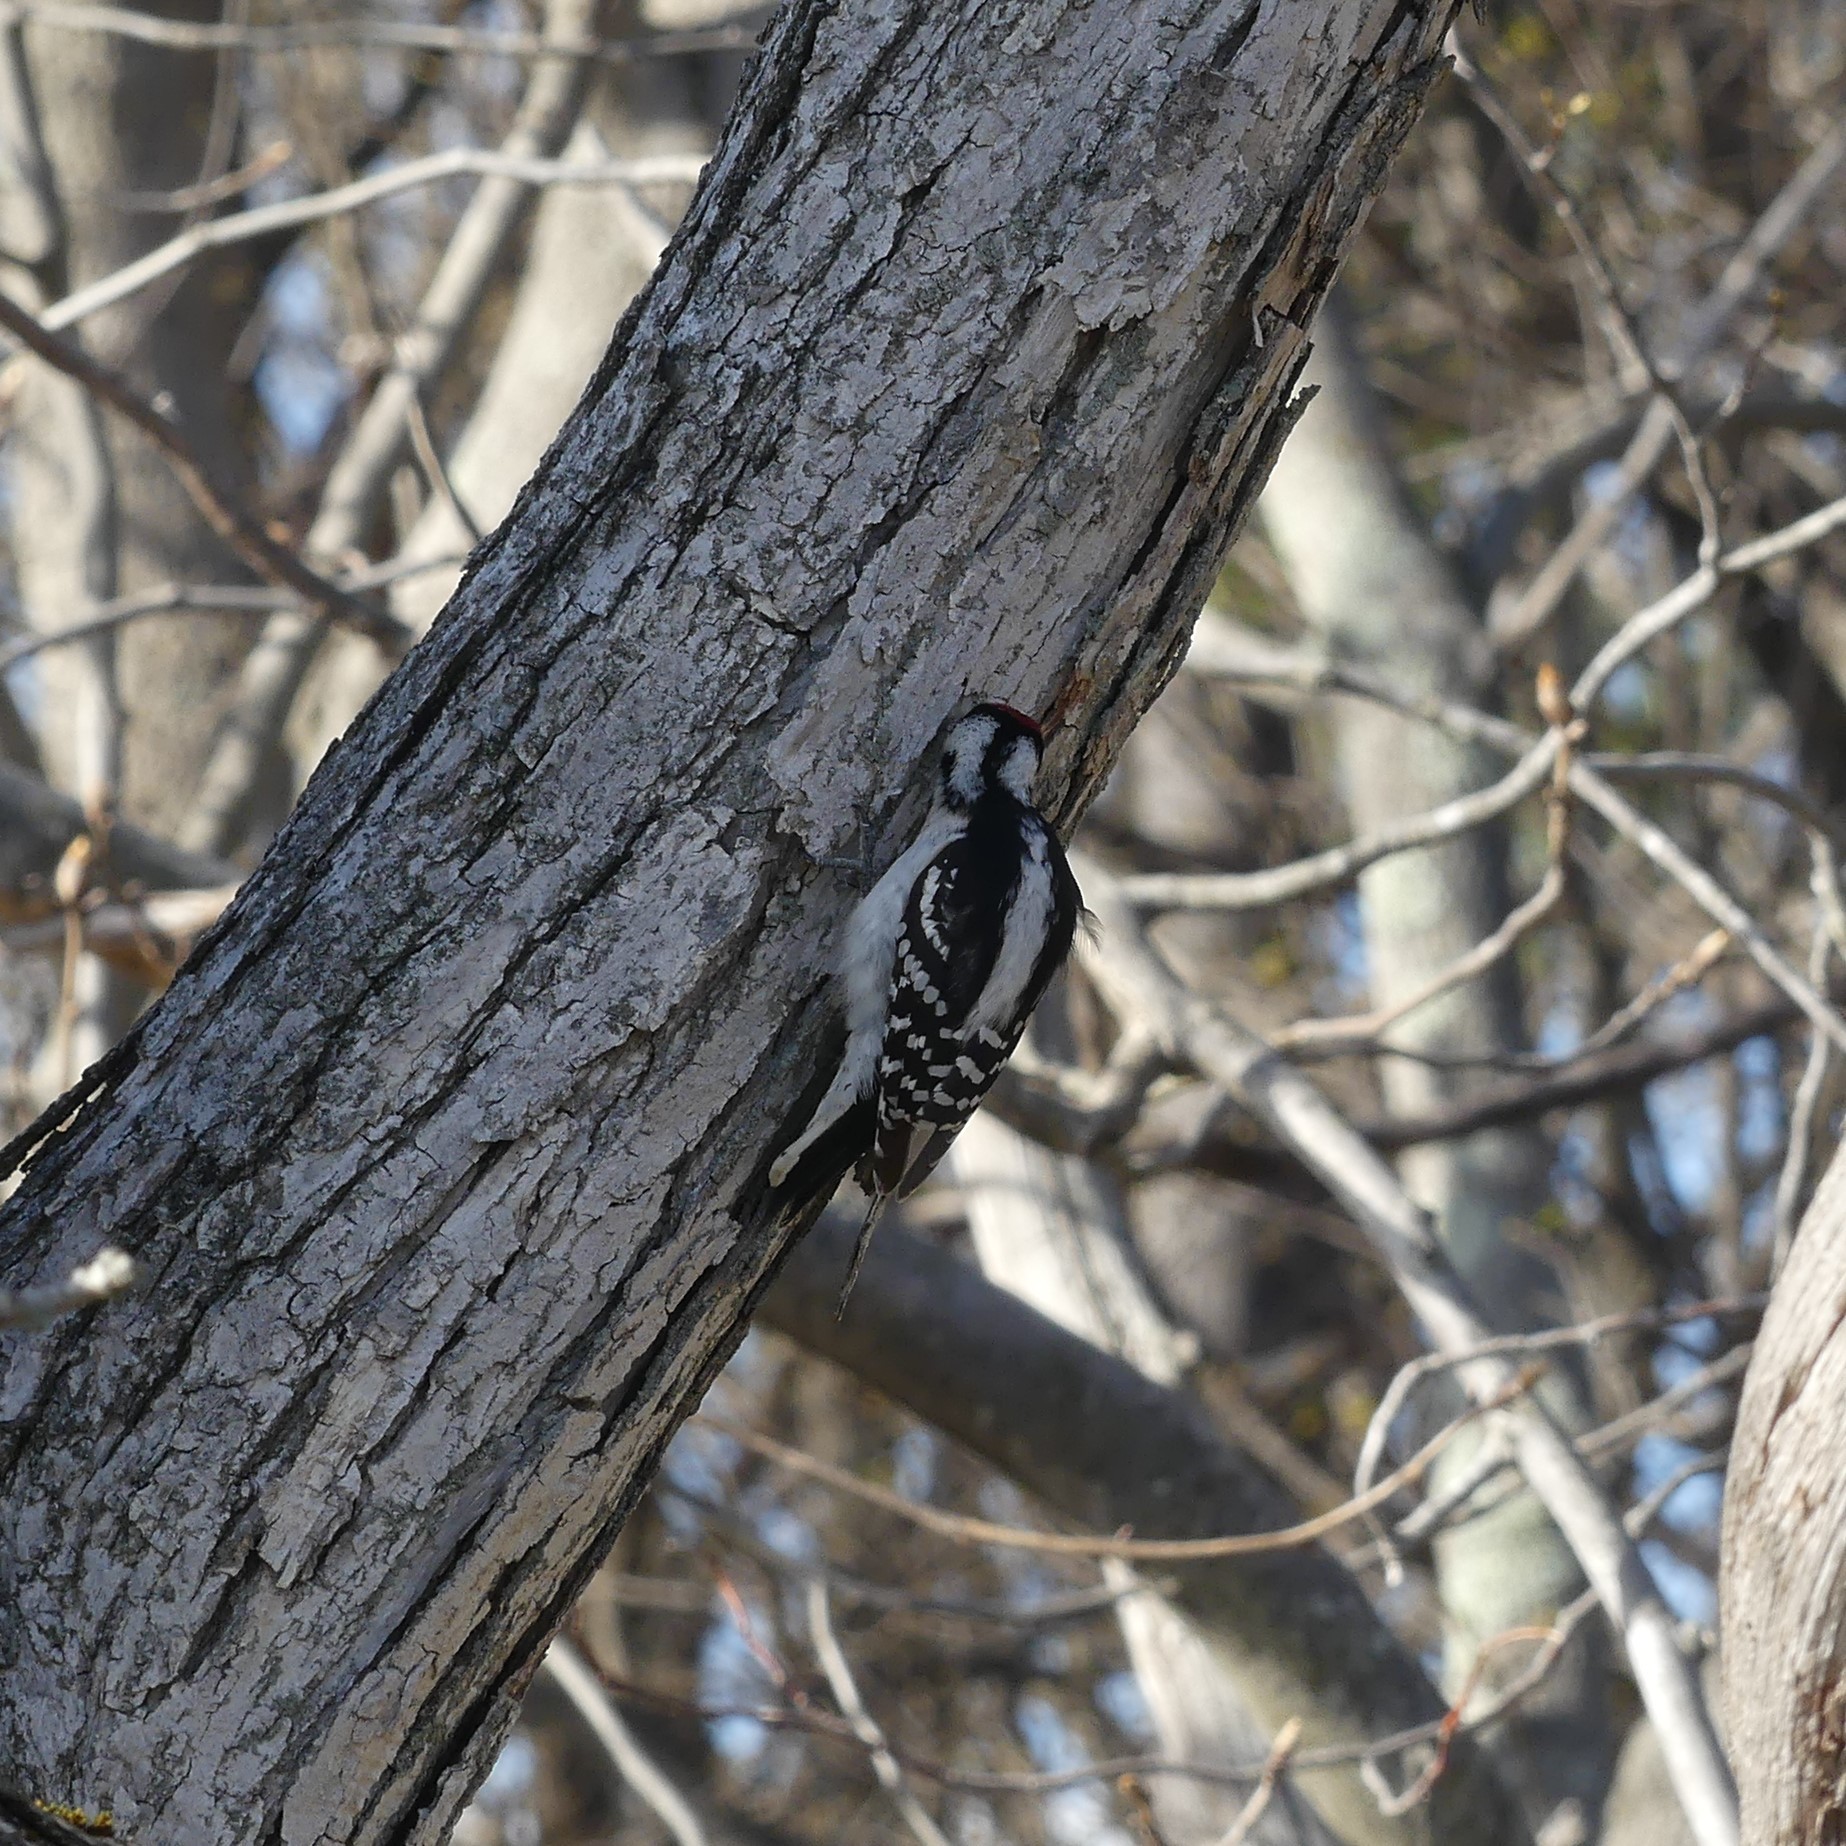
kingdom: Animalia
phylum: Chordata
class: Aves
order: Piciformes
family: Picidae
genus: Dryobates
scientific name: Dryobates pubescens
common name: Downy woodpecker
